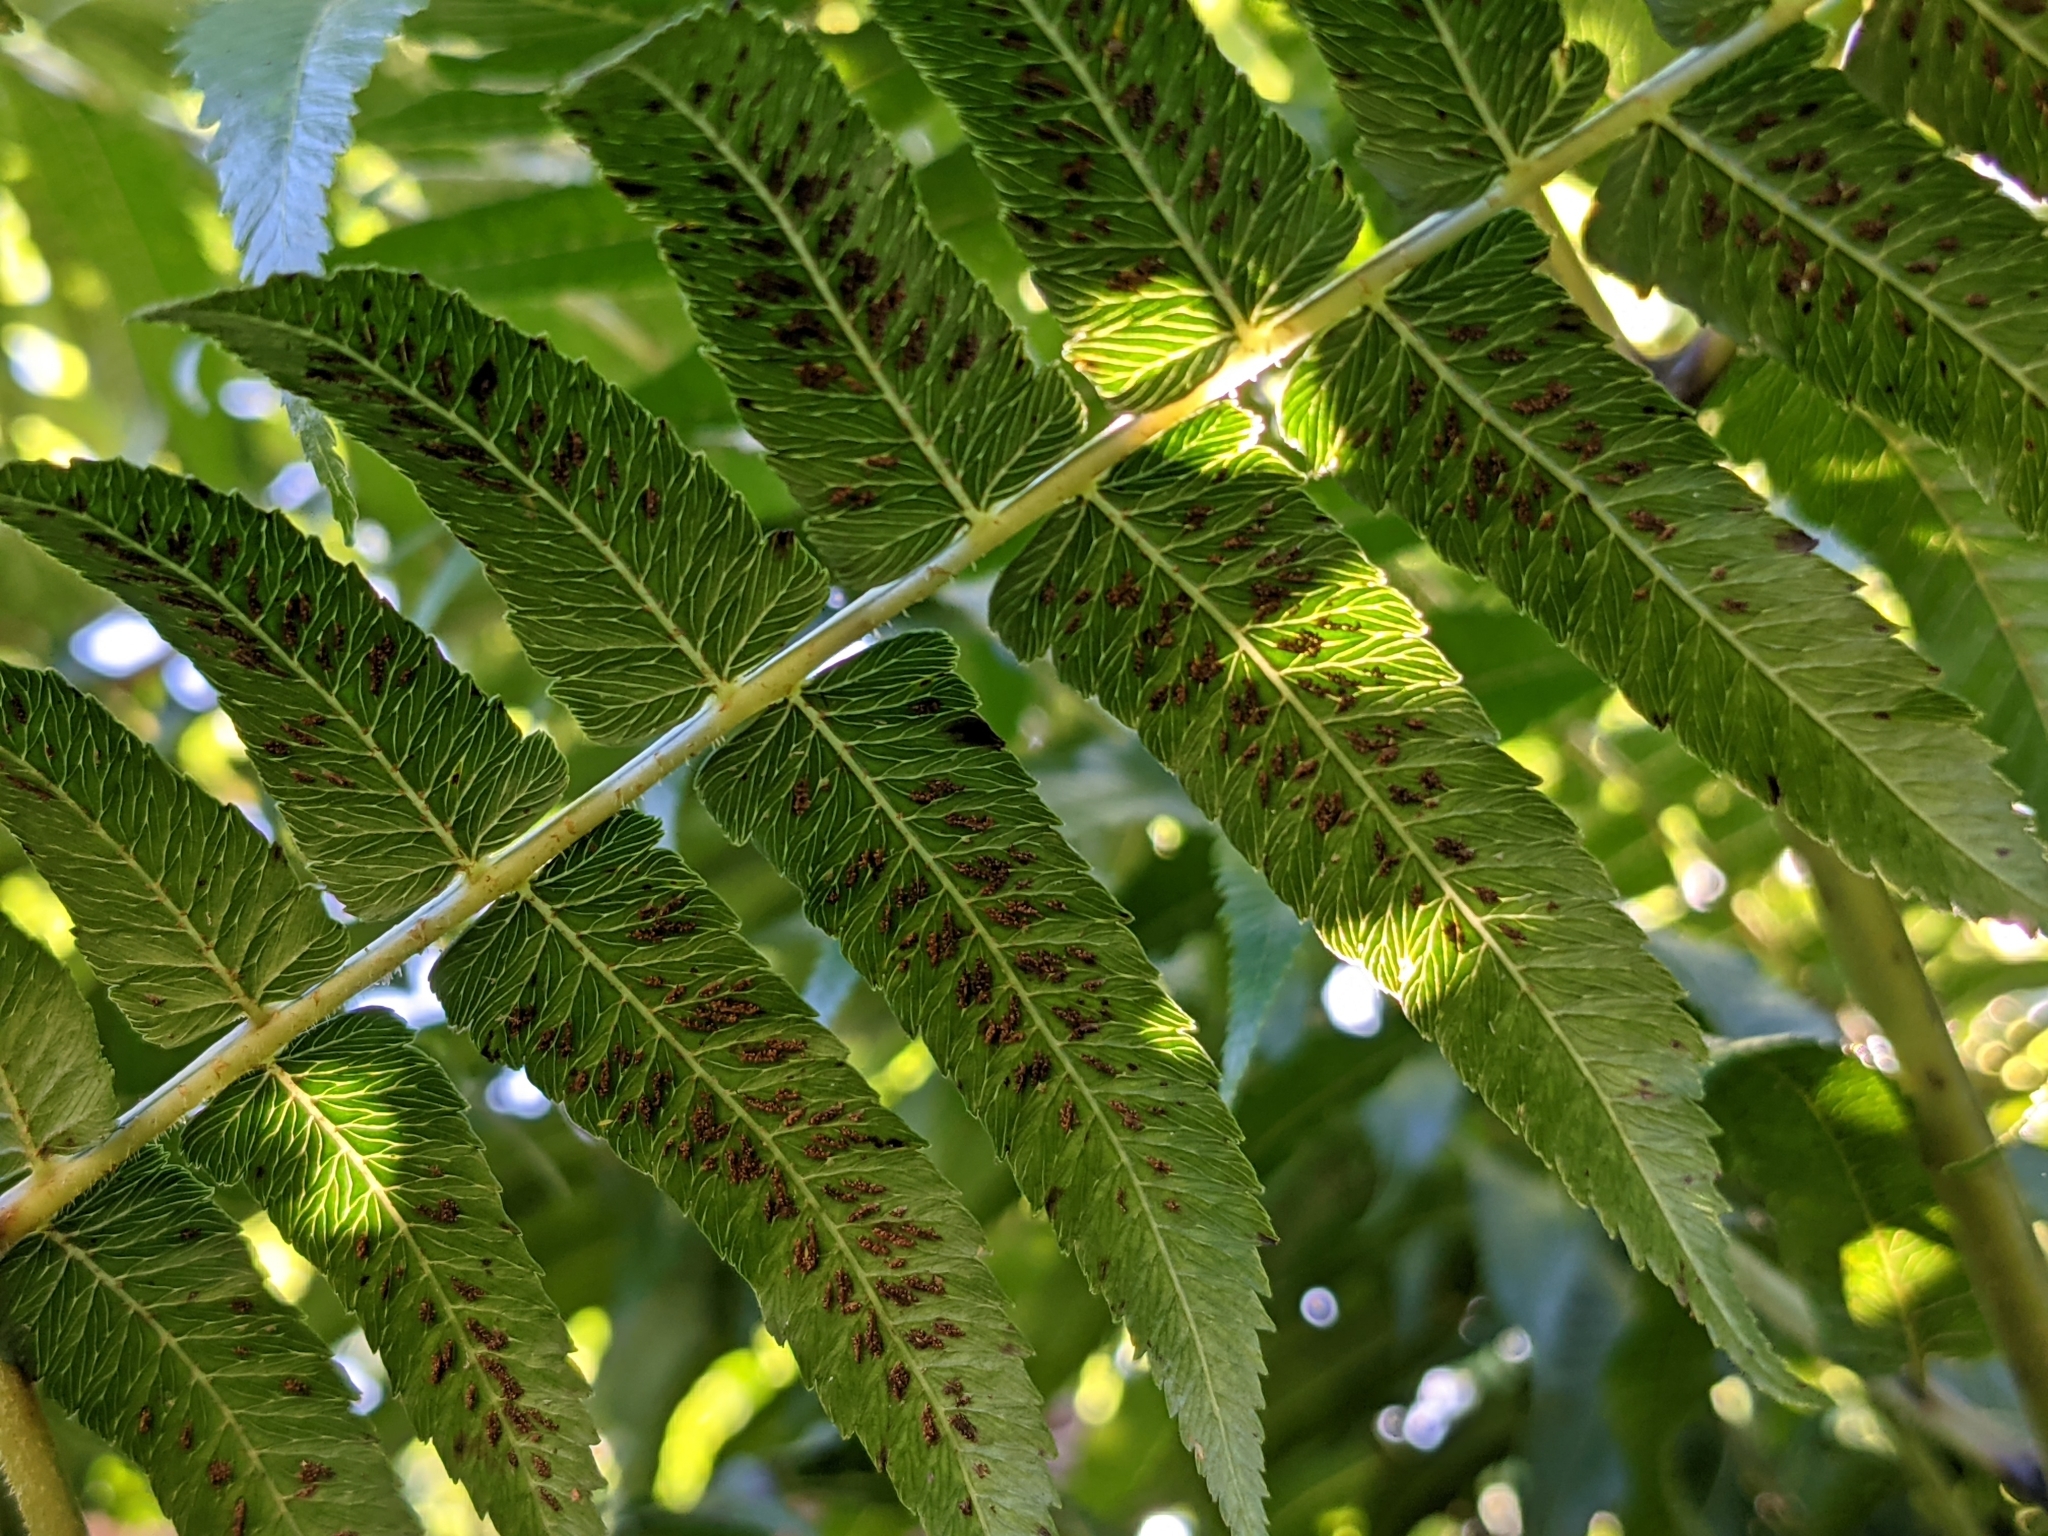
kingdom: Plantae
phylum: Tracheophyta
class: Polypodiopsida
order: Polypodiales
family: Athyriaceae
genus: Diplazium
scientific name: Diplazium esculentum
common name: Vegetable fern
